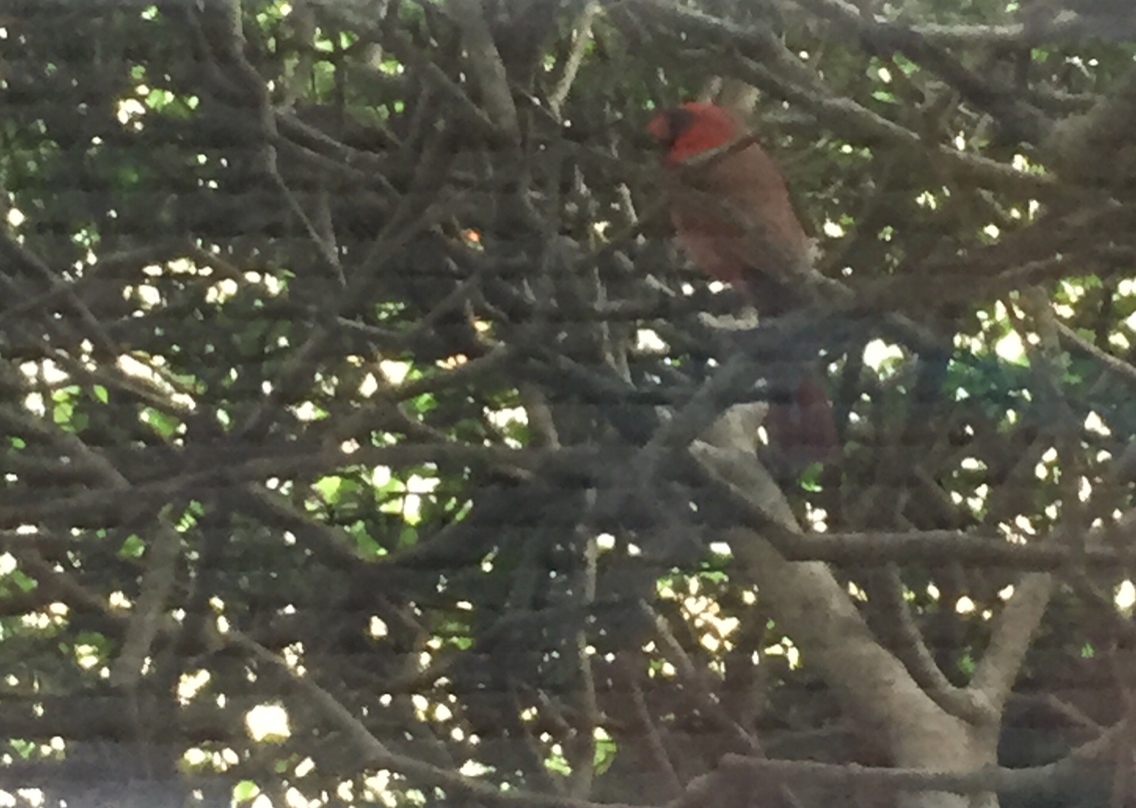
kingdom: Animalia
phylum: Chordata
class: Aves
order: Passeriformes
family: Cardinalidae
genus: Cardinalis
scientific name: Cardinalis cardinalis
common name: Northern cardinal
